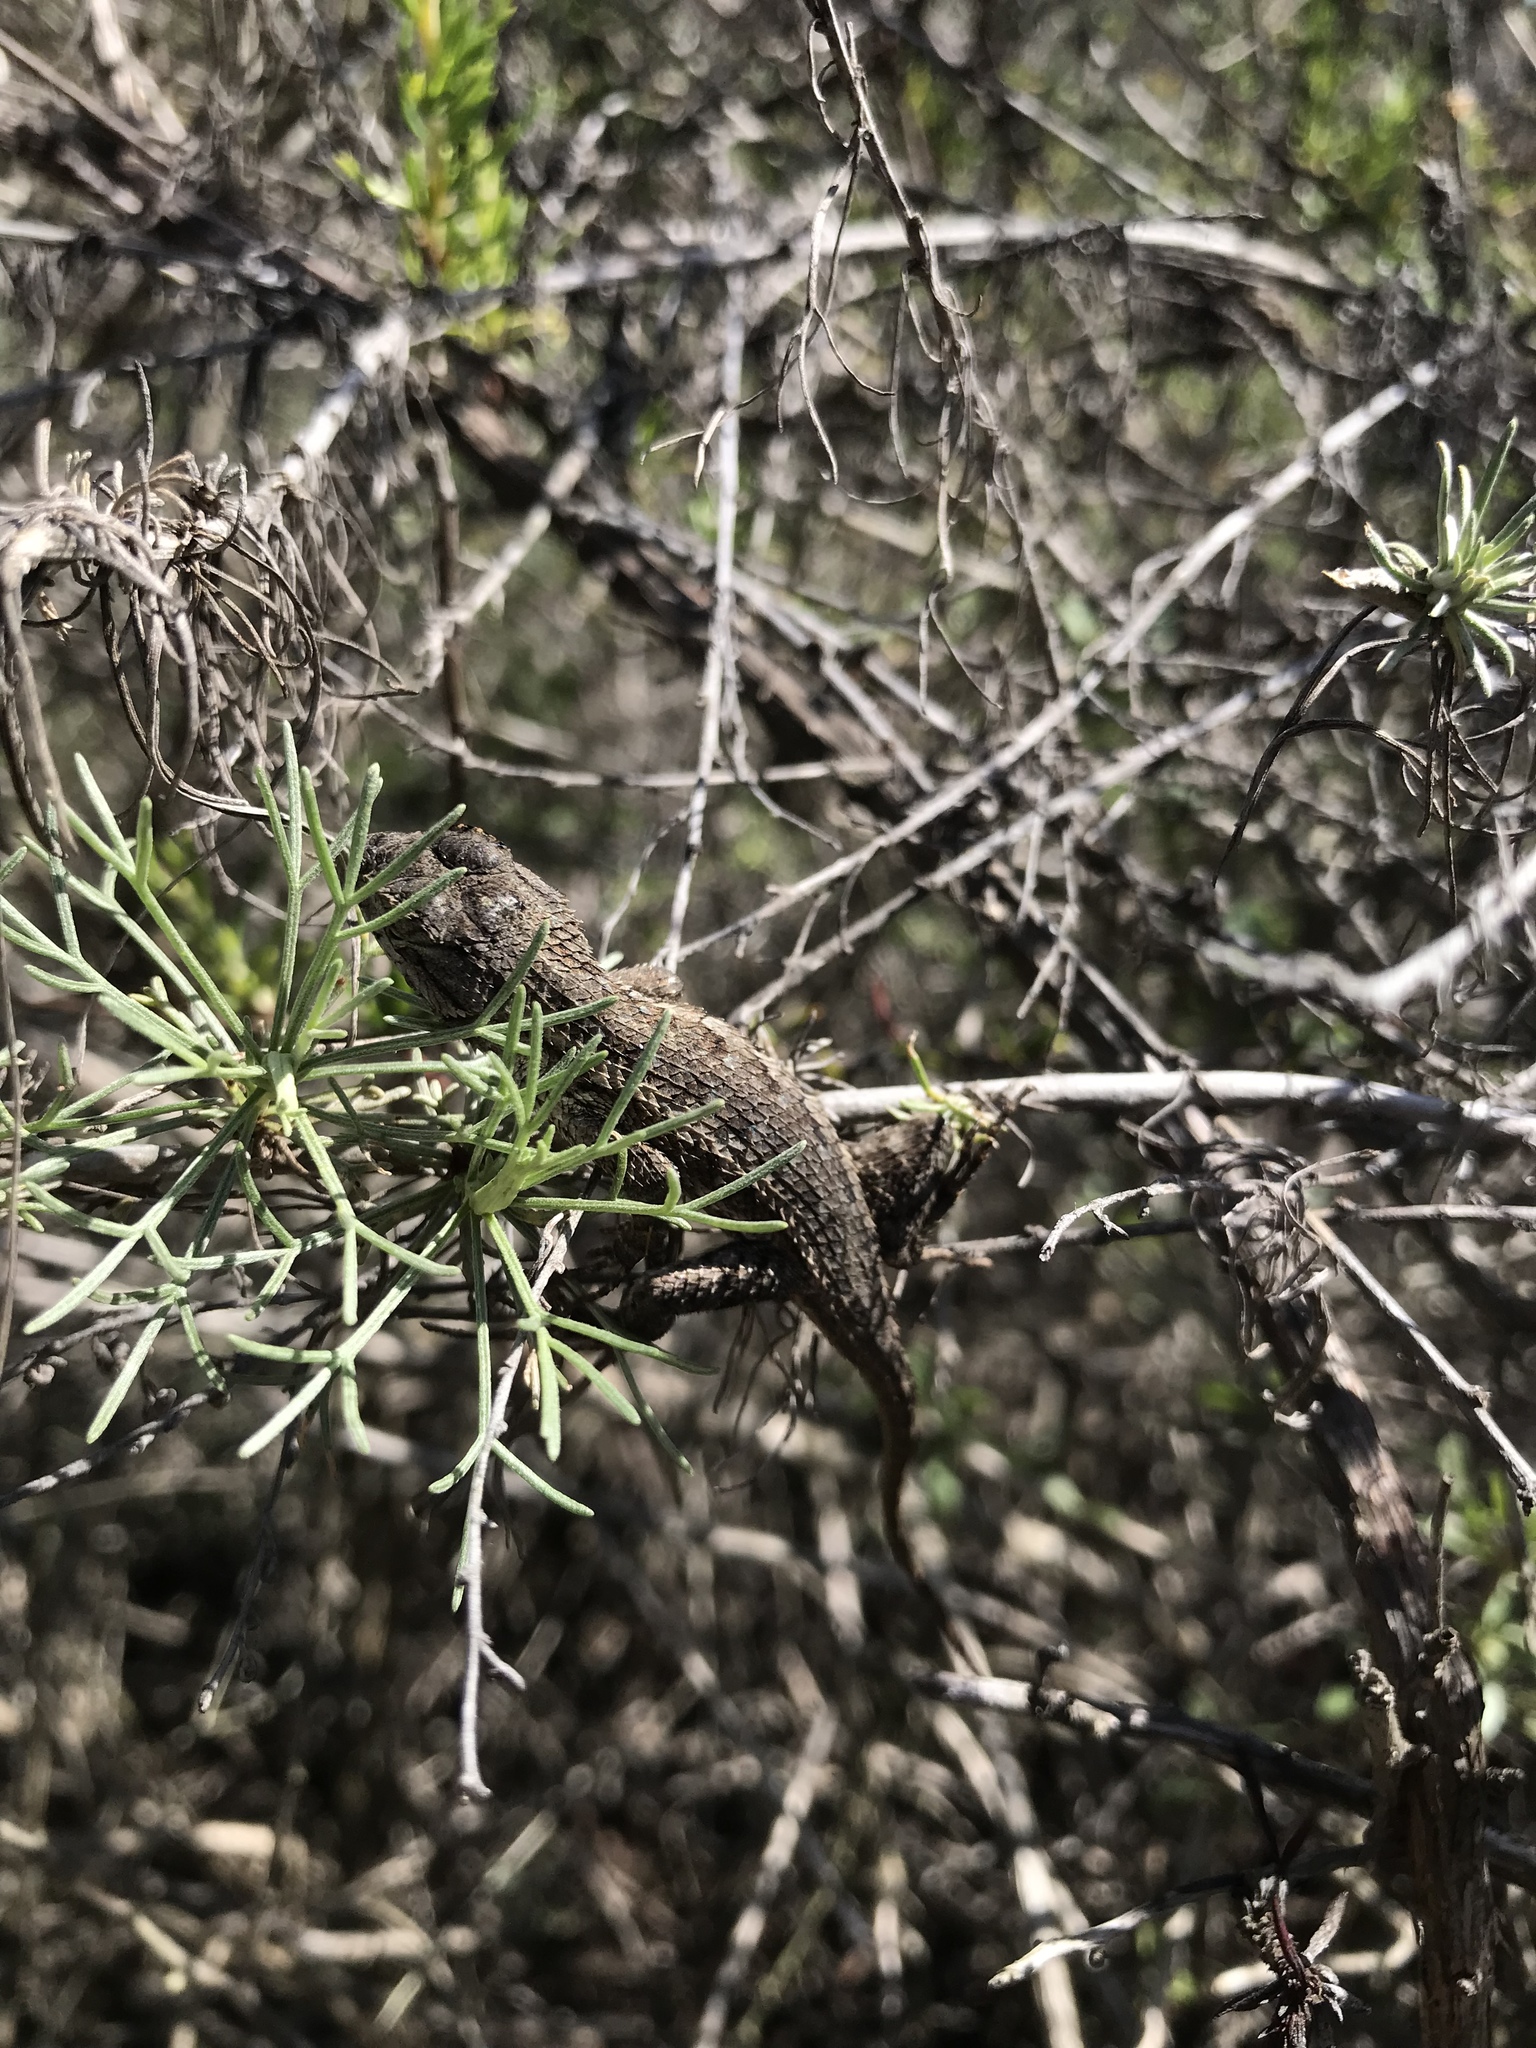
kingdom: Animalia
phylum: Chordata
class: Squamata
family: Phrynosomatidae
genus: Sceloporus
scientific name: Sceloporus occidentalis
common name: Western fence lizard
